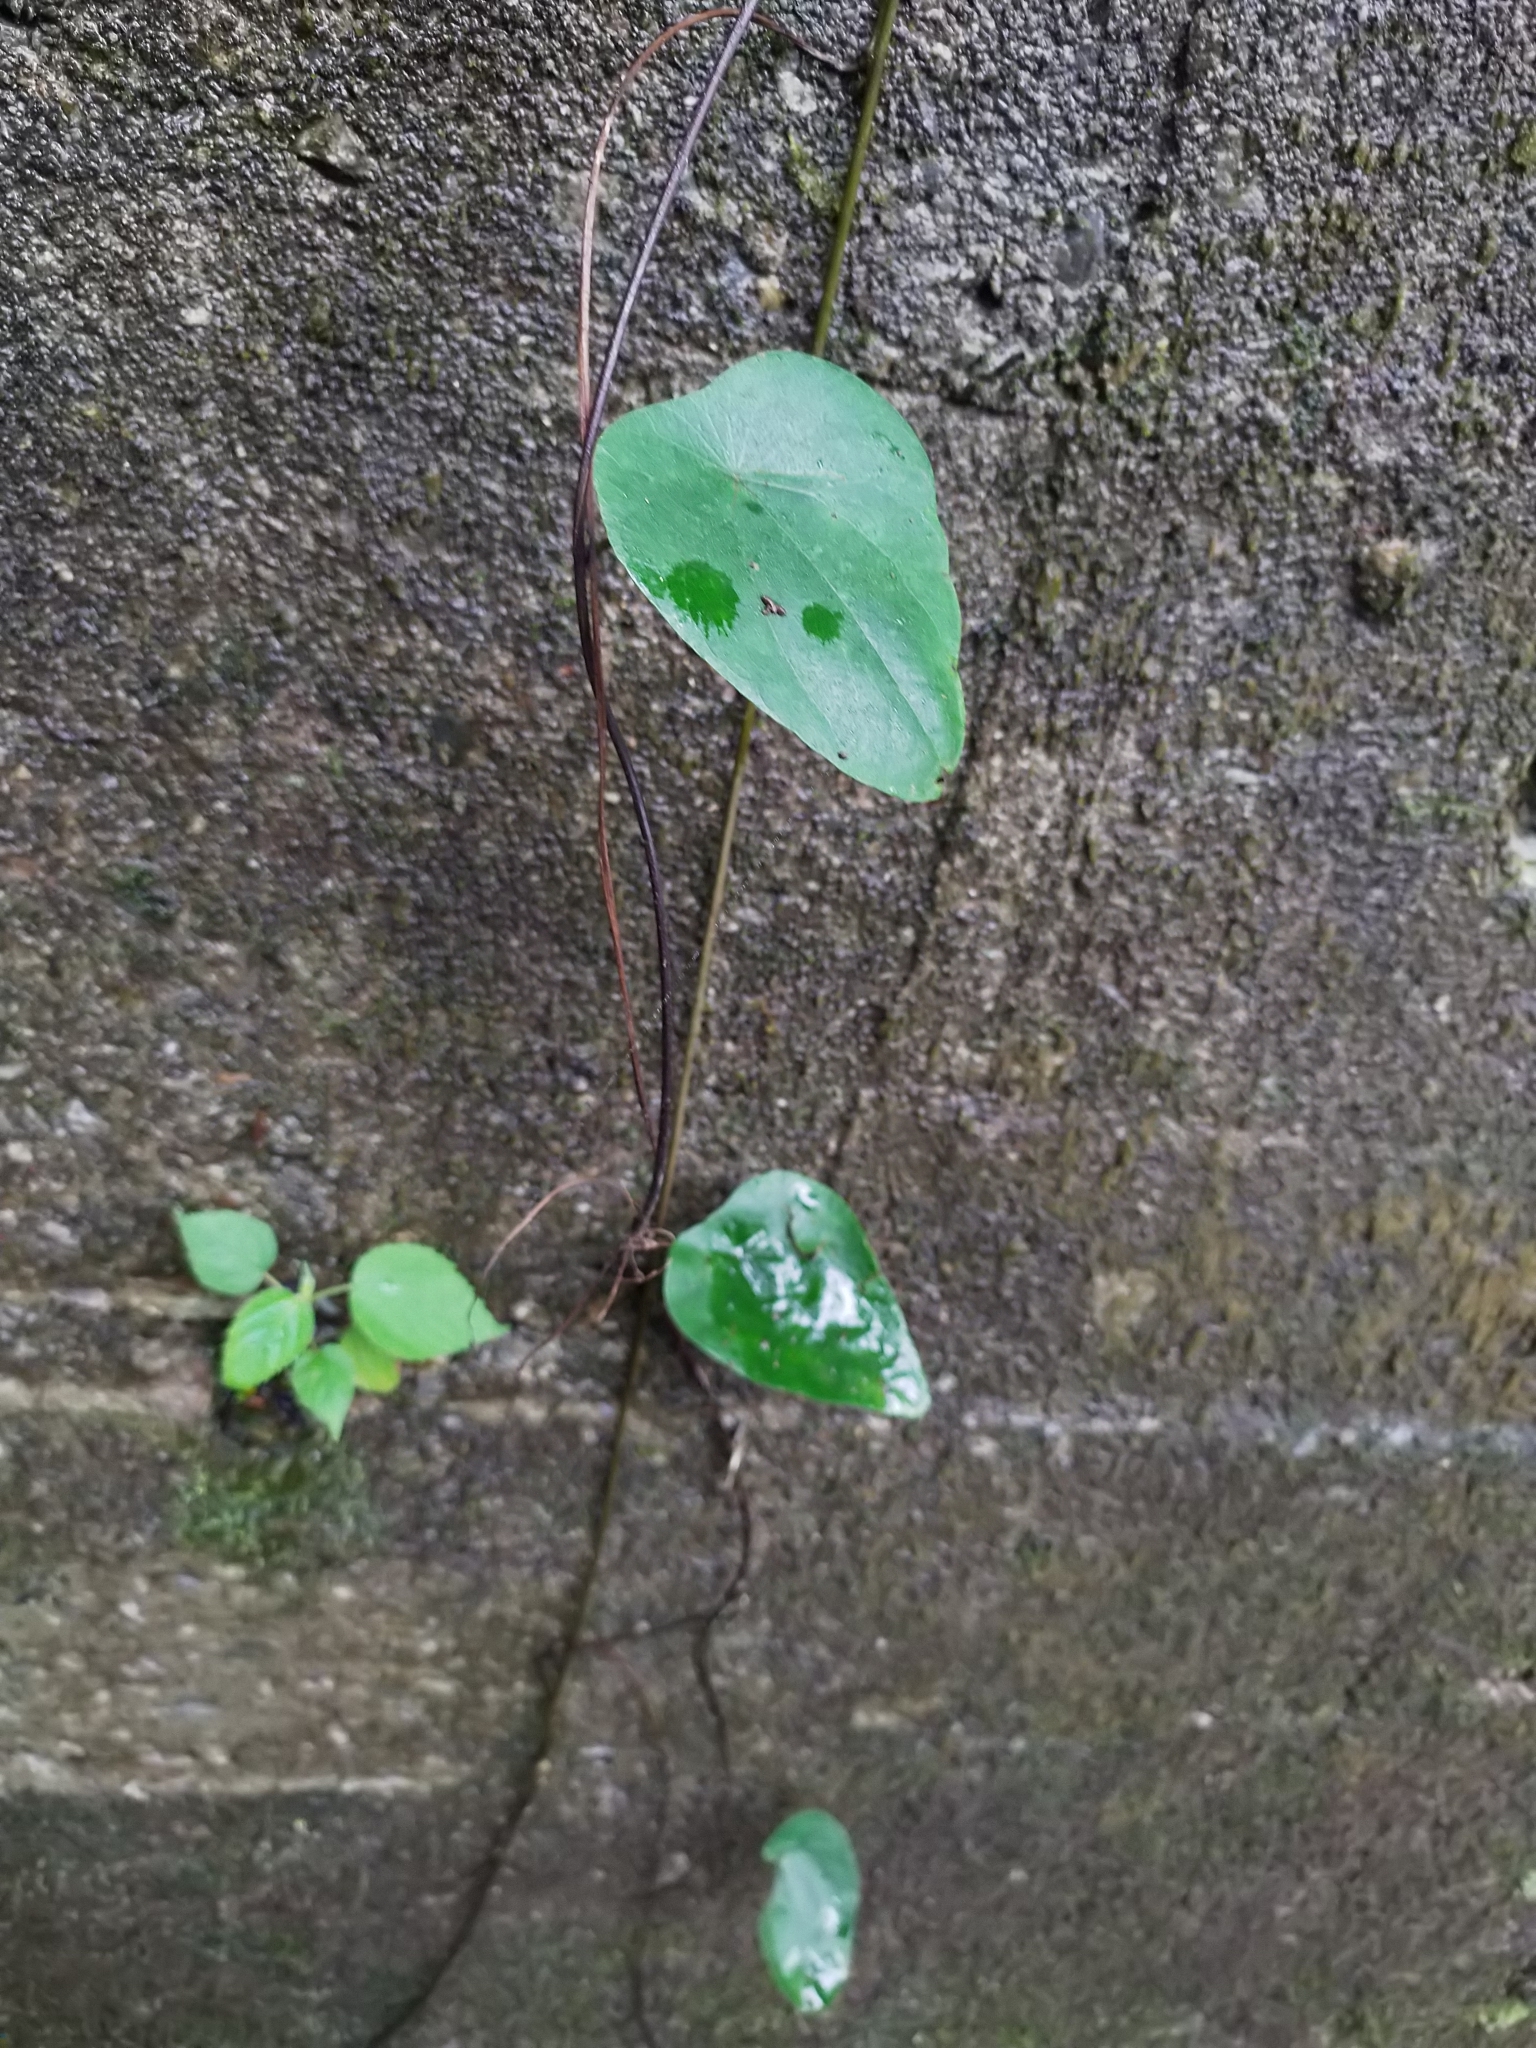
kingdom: Plantae
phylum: Tracheophyta
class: Magnoliopsida
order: Ranunculales
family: Menispermaceae
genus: Stephania
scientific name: Stephania japonica
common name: Snake vine
